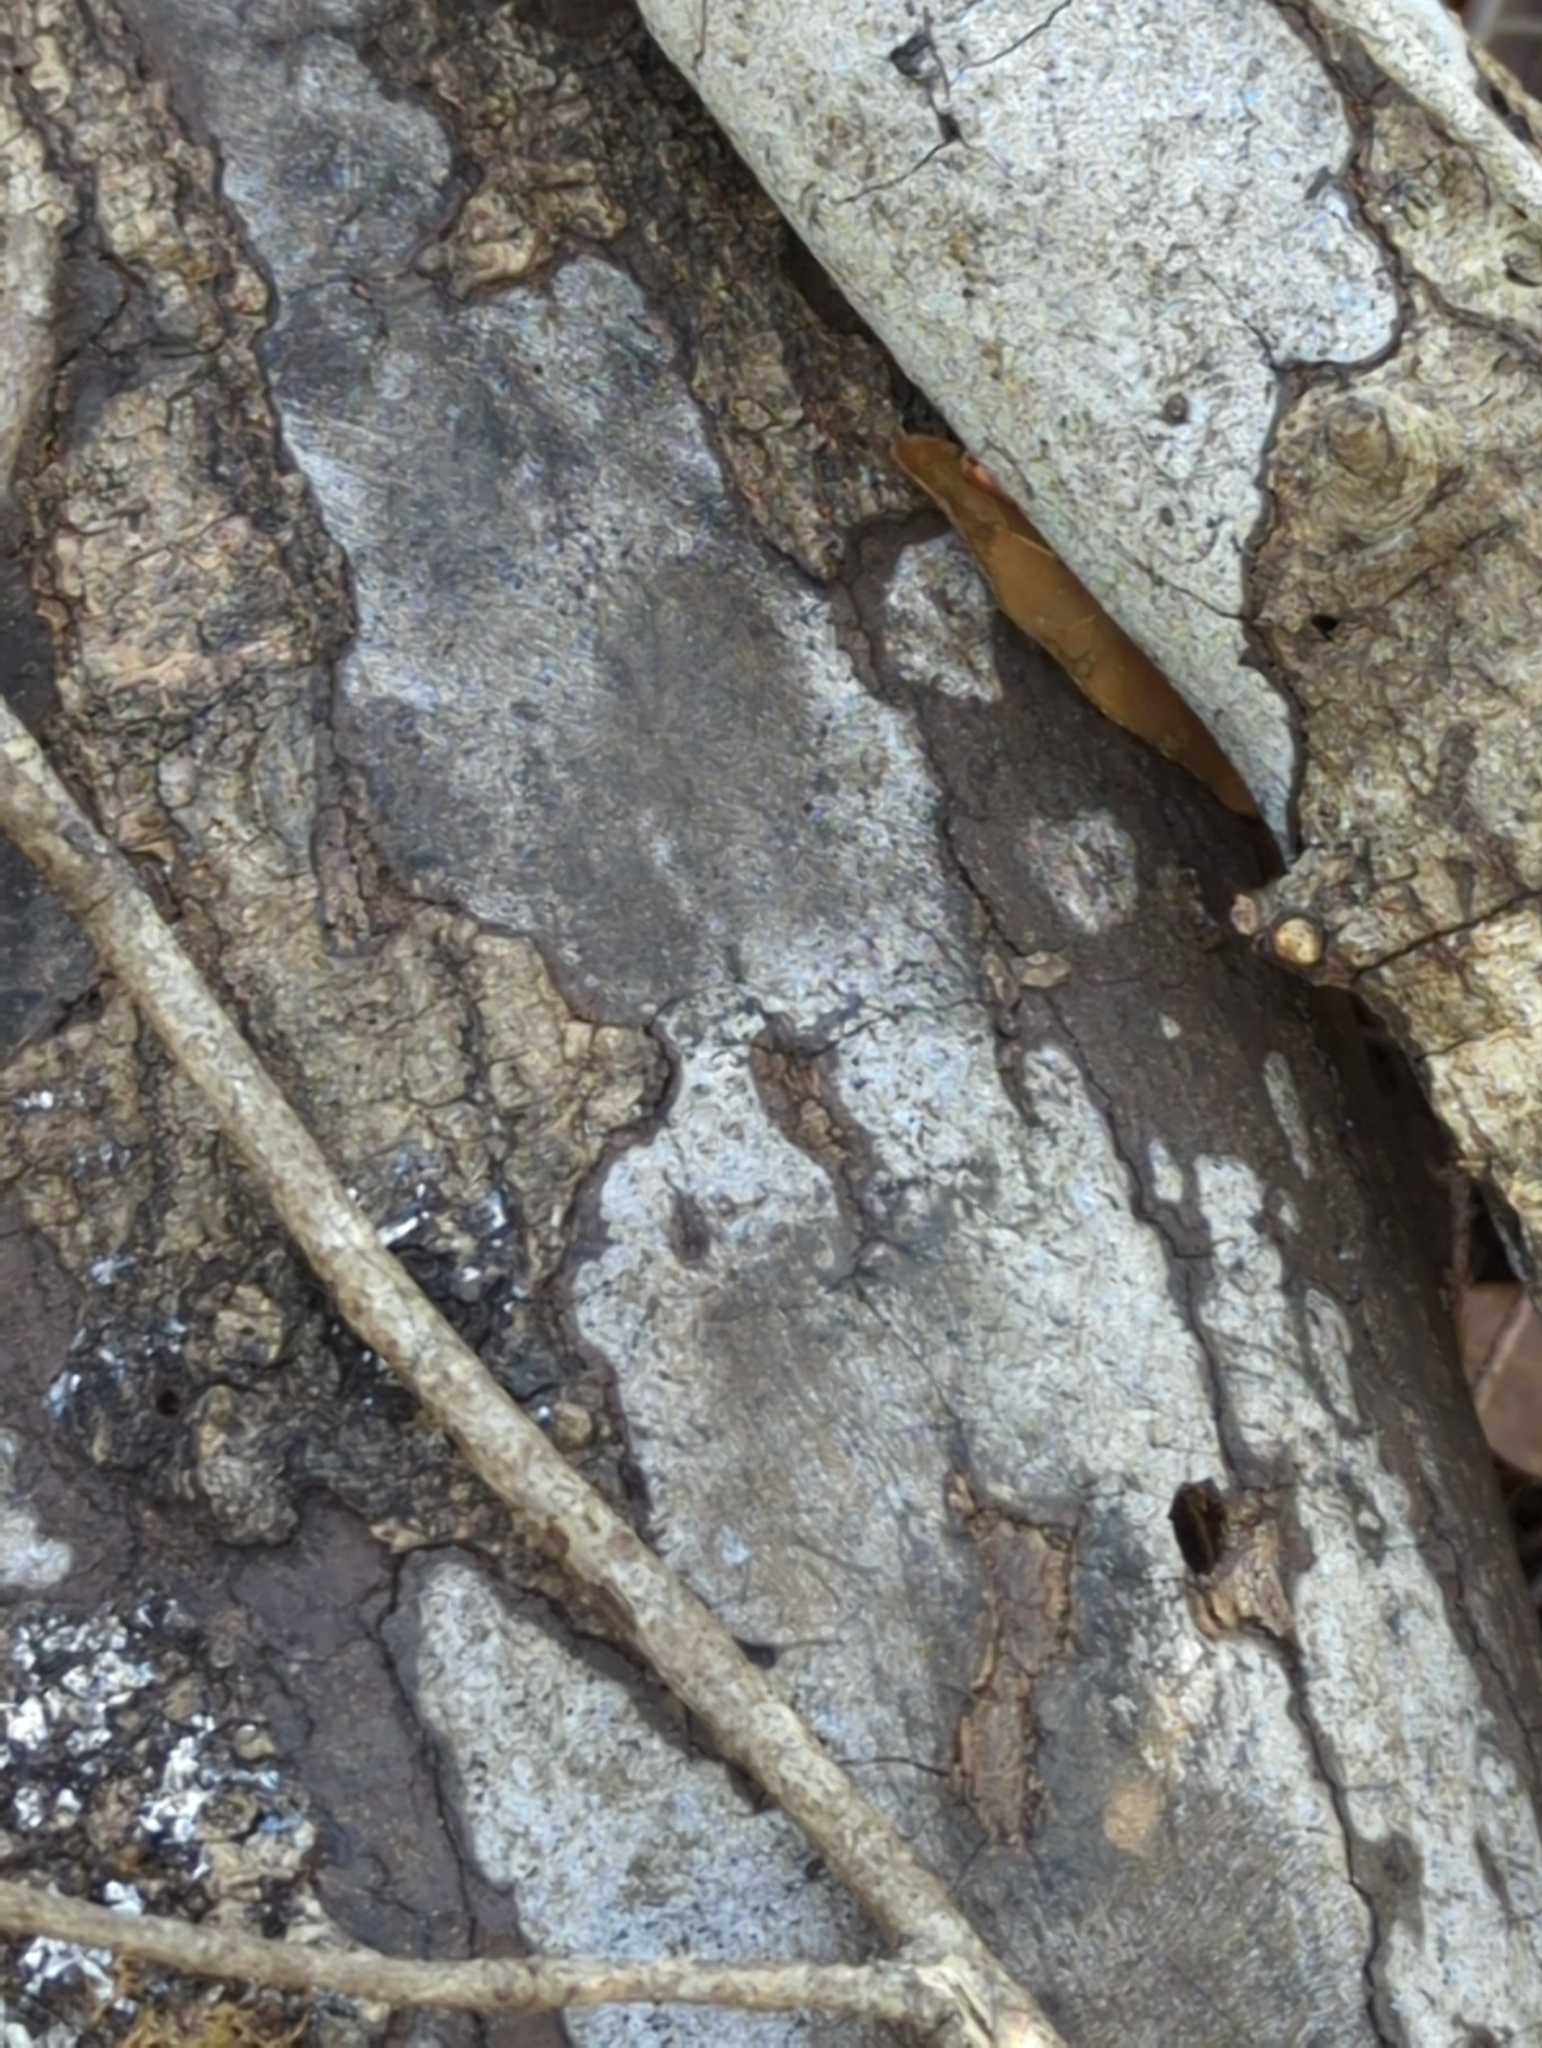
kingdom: Fungi
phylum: Ascomycota
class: Sordariomycetes
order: Xylariales
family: Graphostromataceae
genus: Biscogniauxia
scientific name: Biscogniauxia atropunctata
